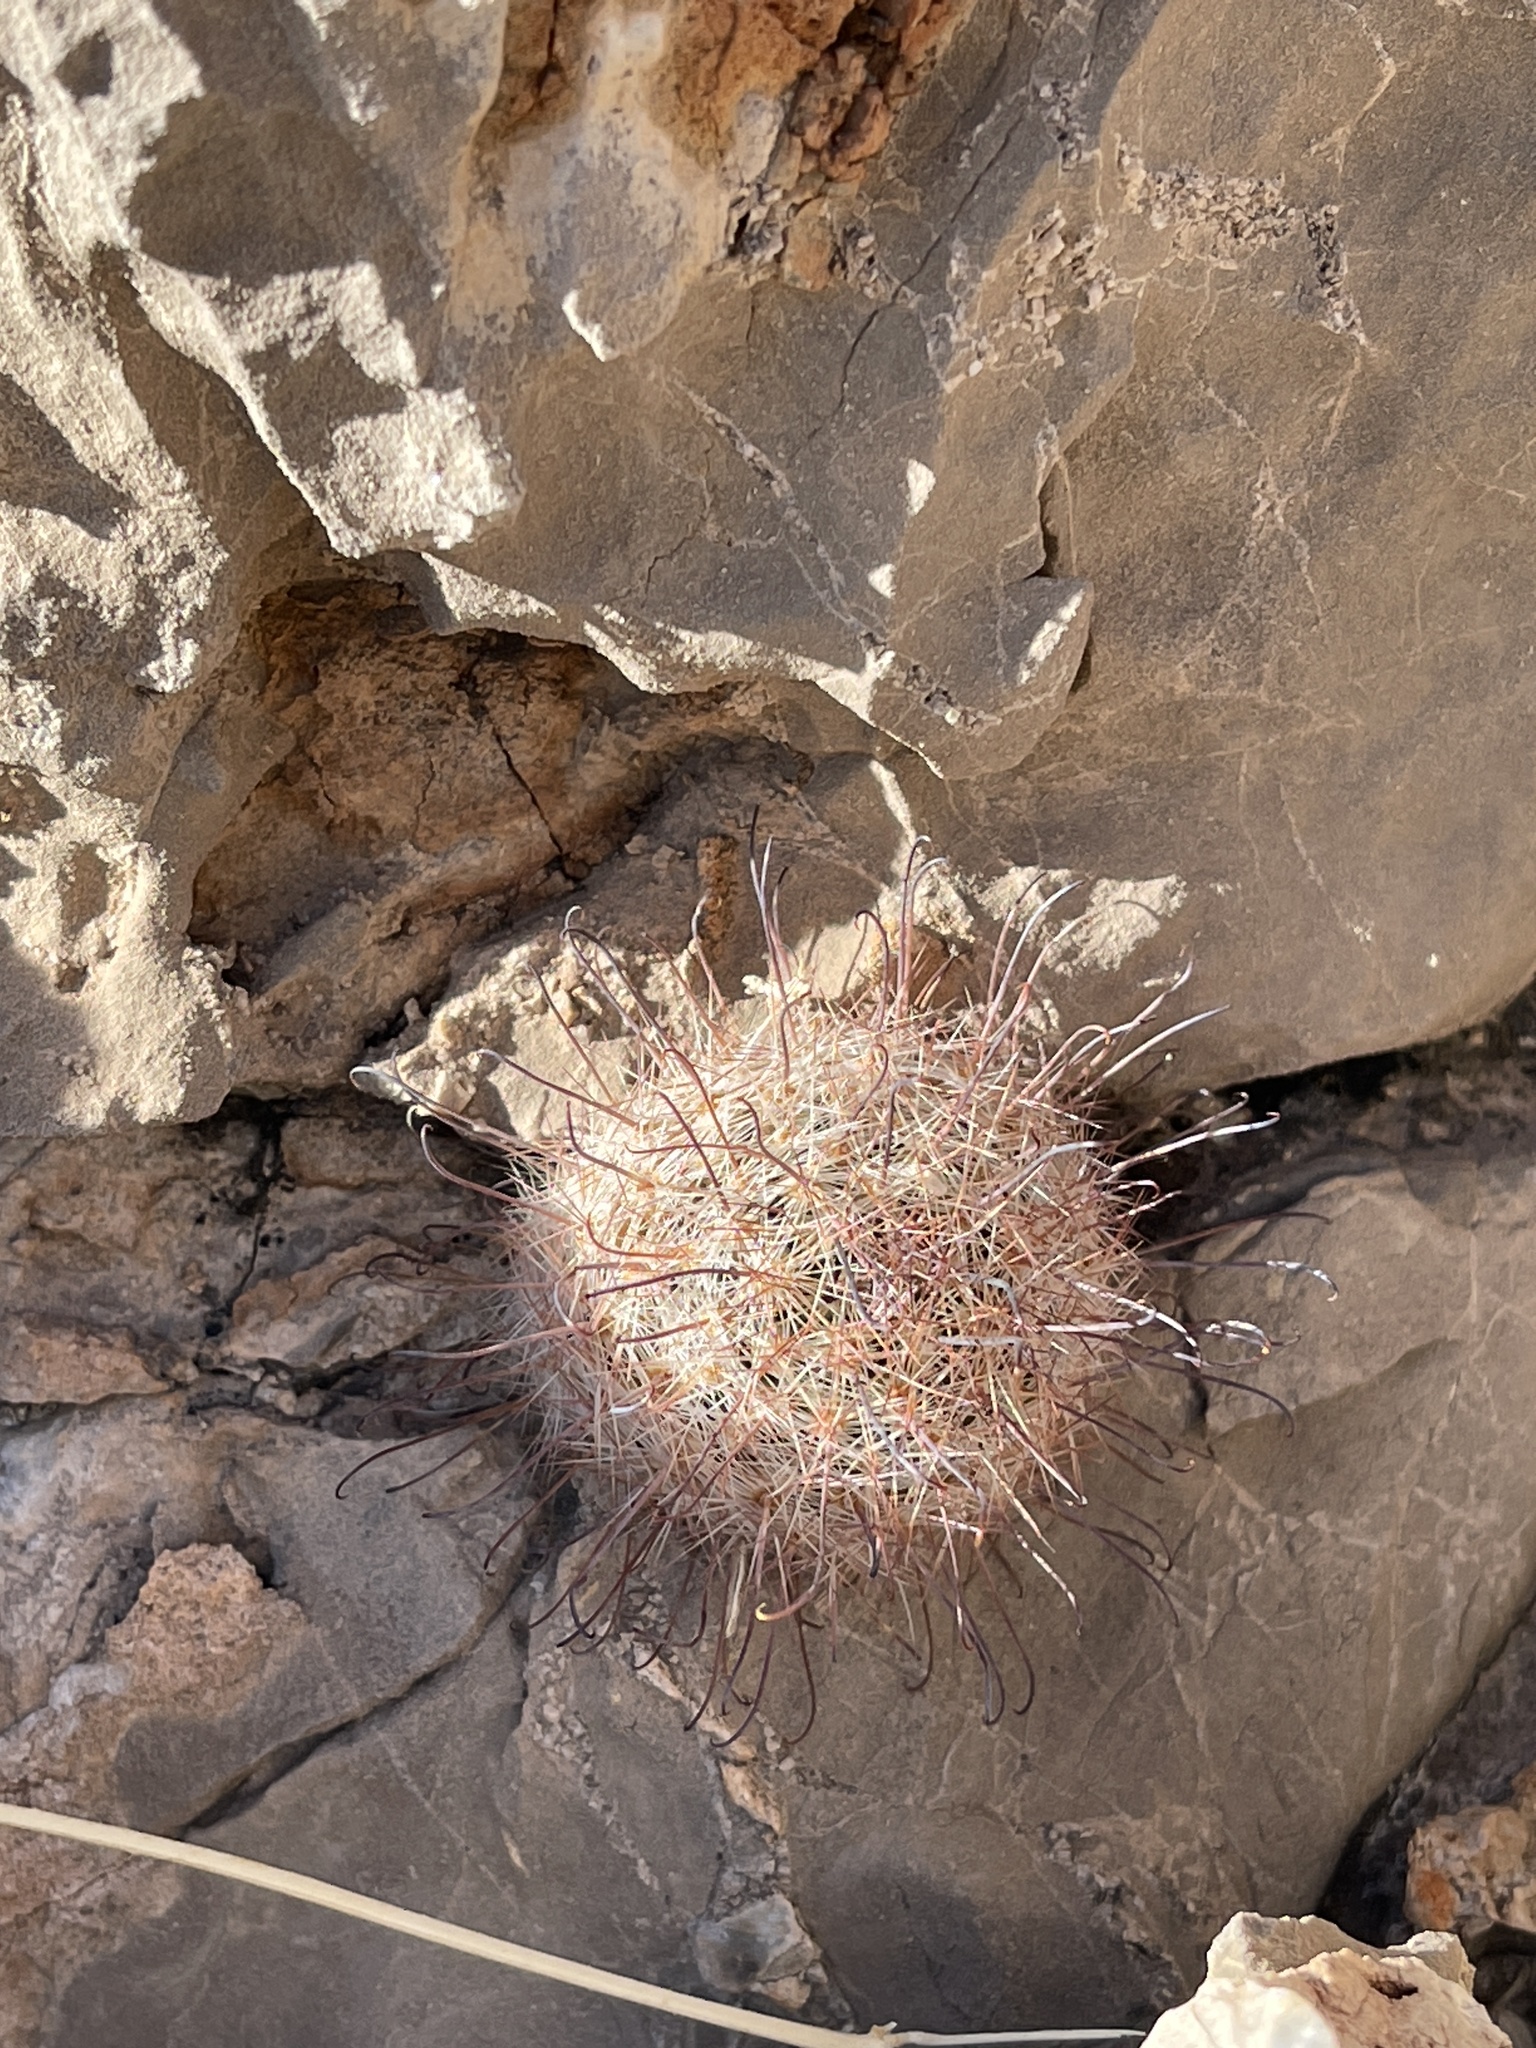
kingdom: Plantae
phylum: Tracheophyta
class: Magnoliopsida
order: Caryophyllales
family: Cactaceae
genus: Cochemiea
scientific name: Cochemiea grahamii
